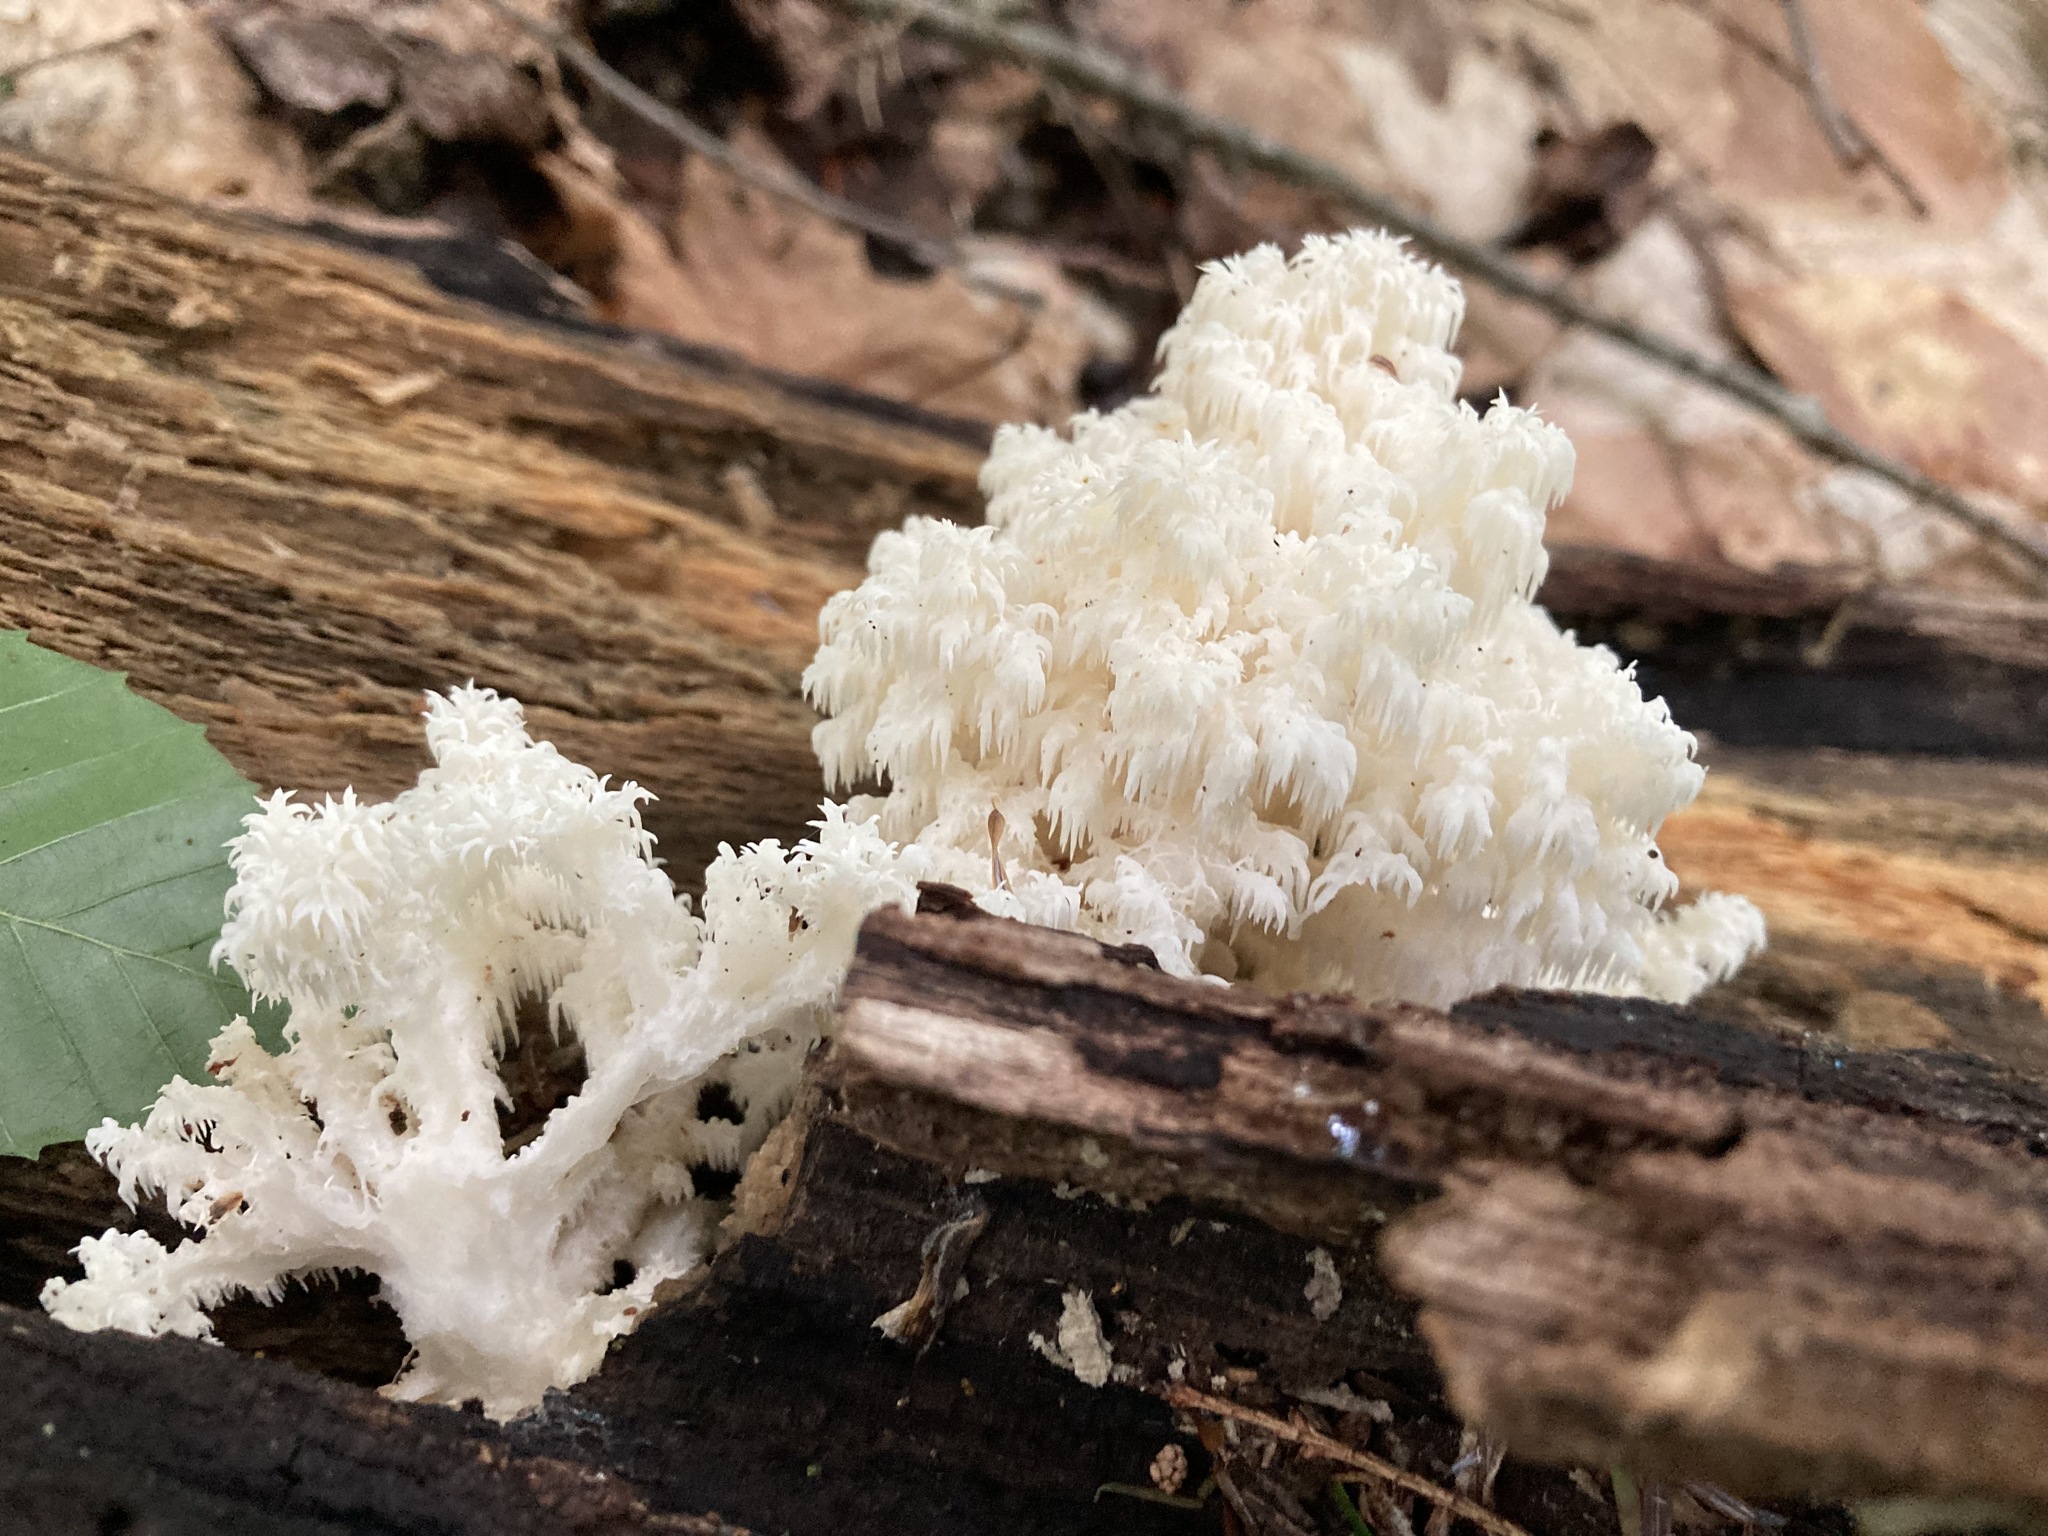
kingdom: Fungi
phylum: Basidiomycota
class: Agaricomycetes
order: Russulales
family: Hericiaceae
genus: Hericium
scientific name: Hericium coralloides
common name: Coral tooth
